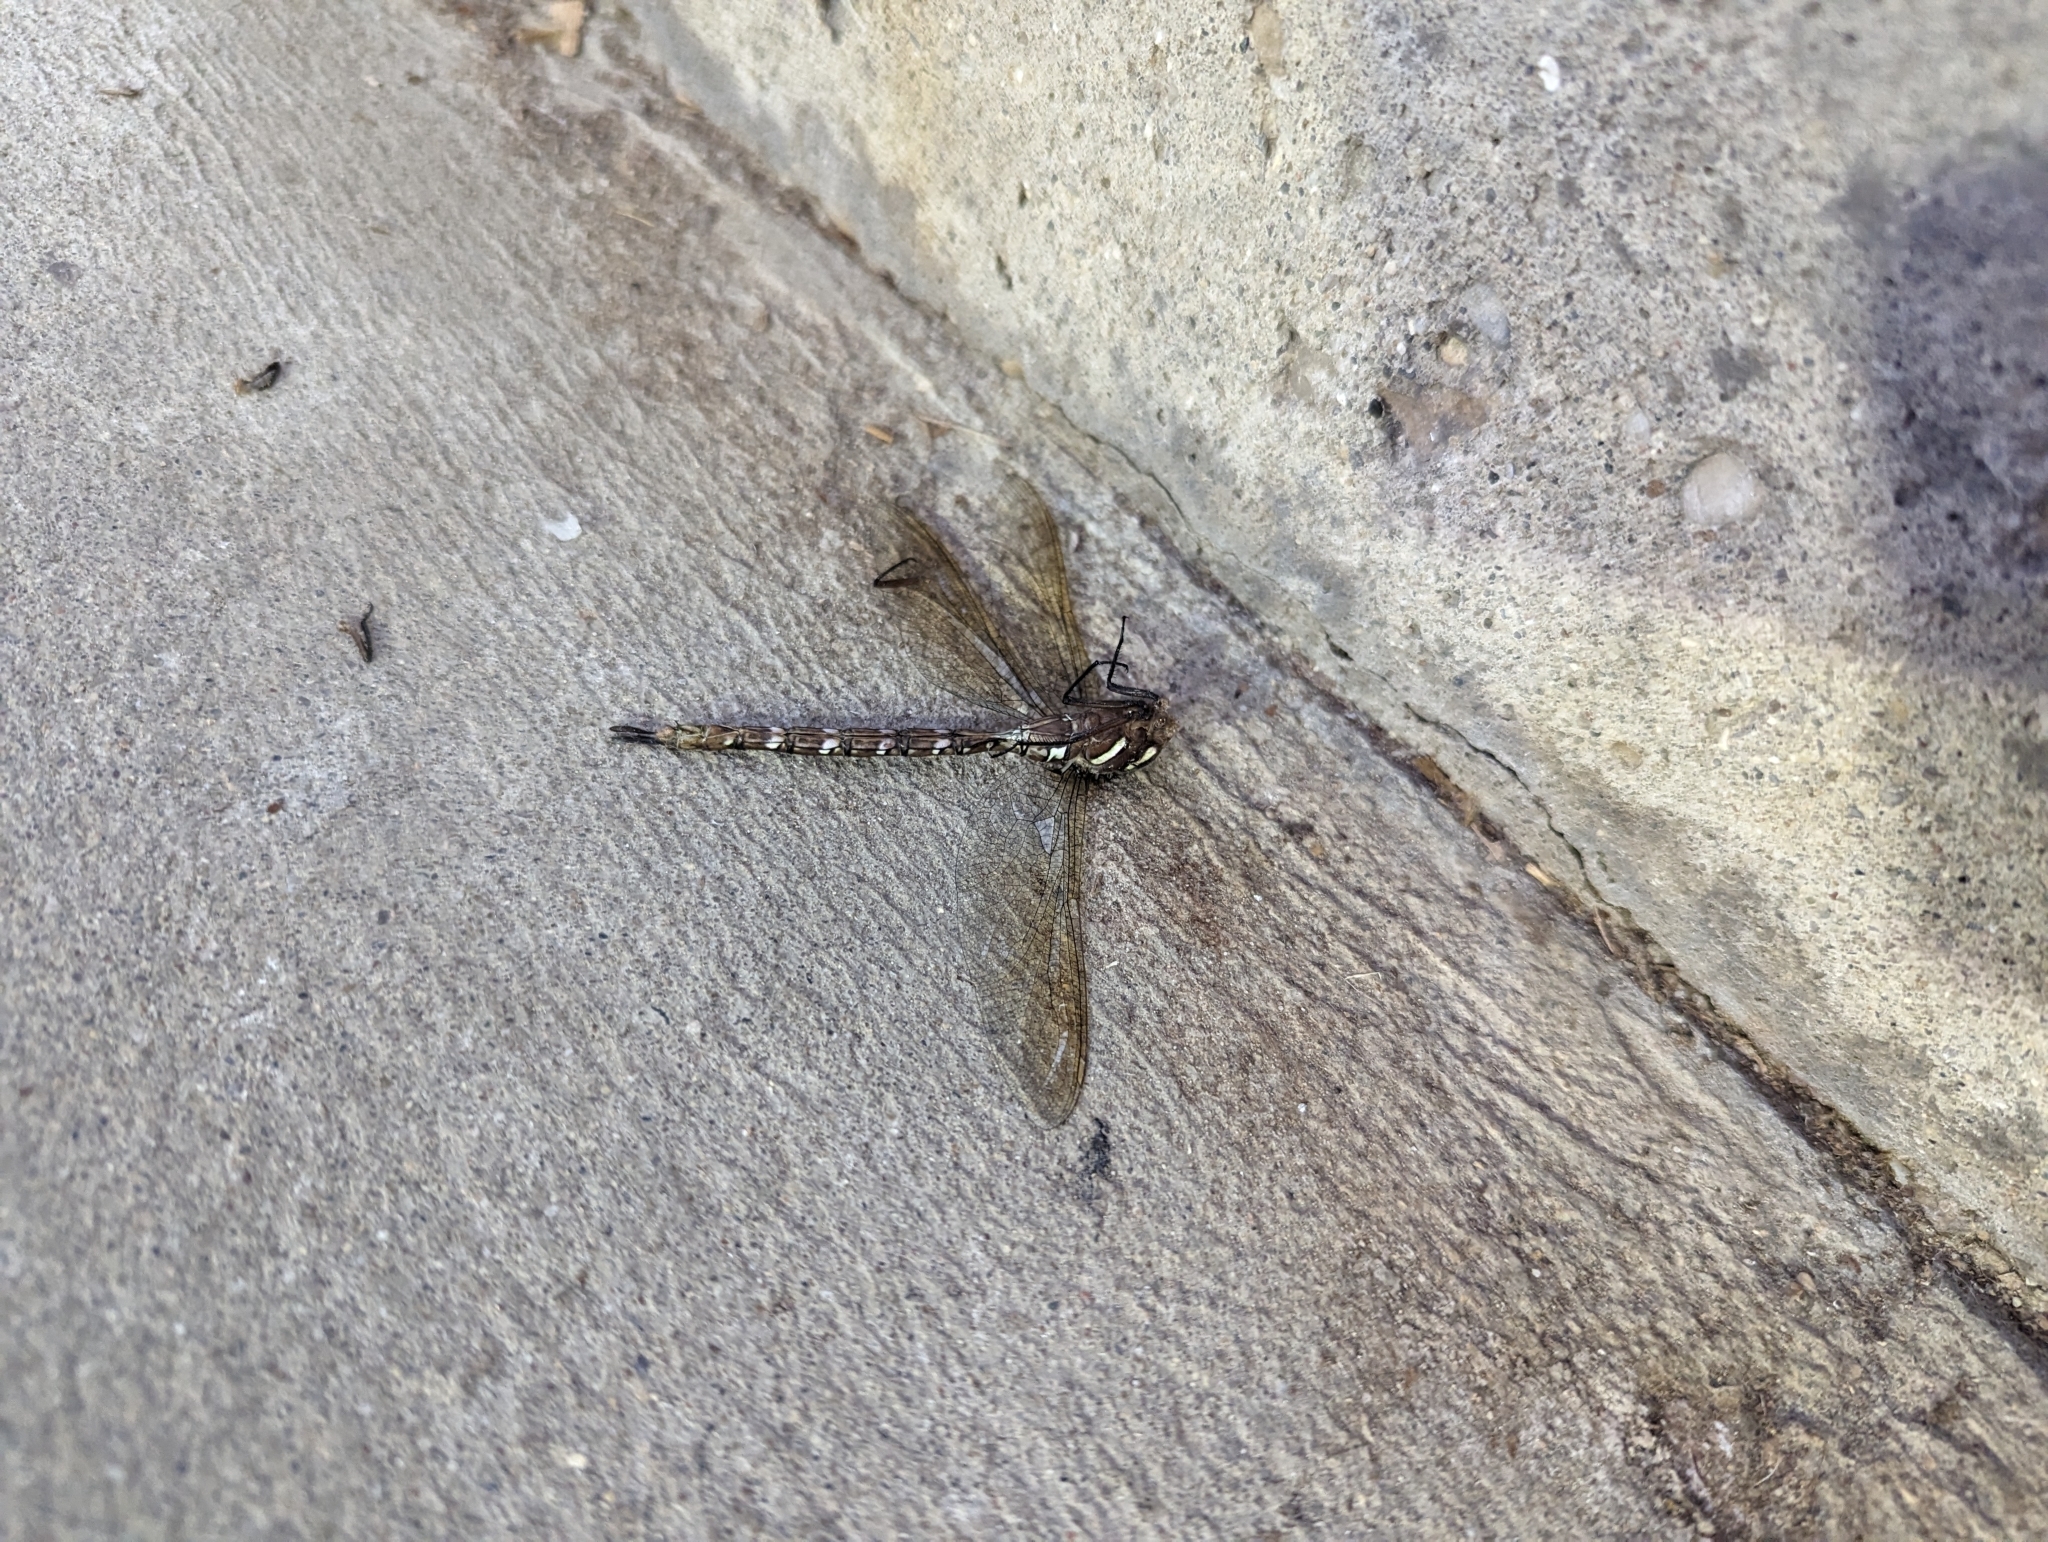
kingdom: Animalia
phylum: Arthropoda
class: Insecta
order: Odonata
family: Aeshnidae
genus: Aeshna
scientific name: Aeshna umbrosa
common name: Shadow darner
